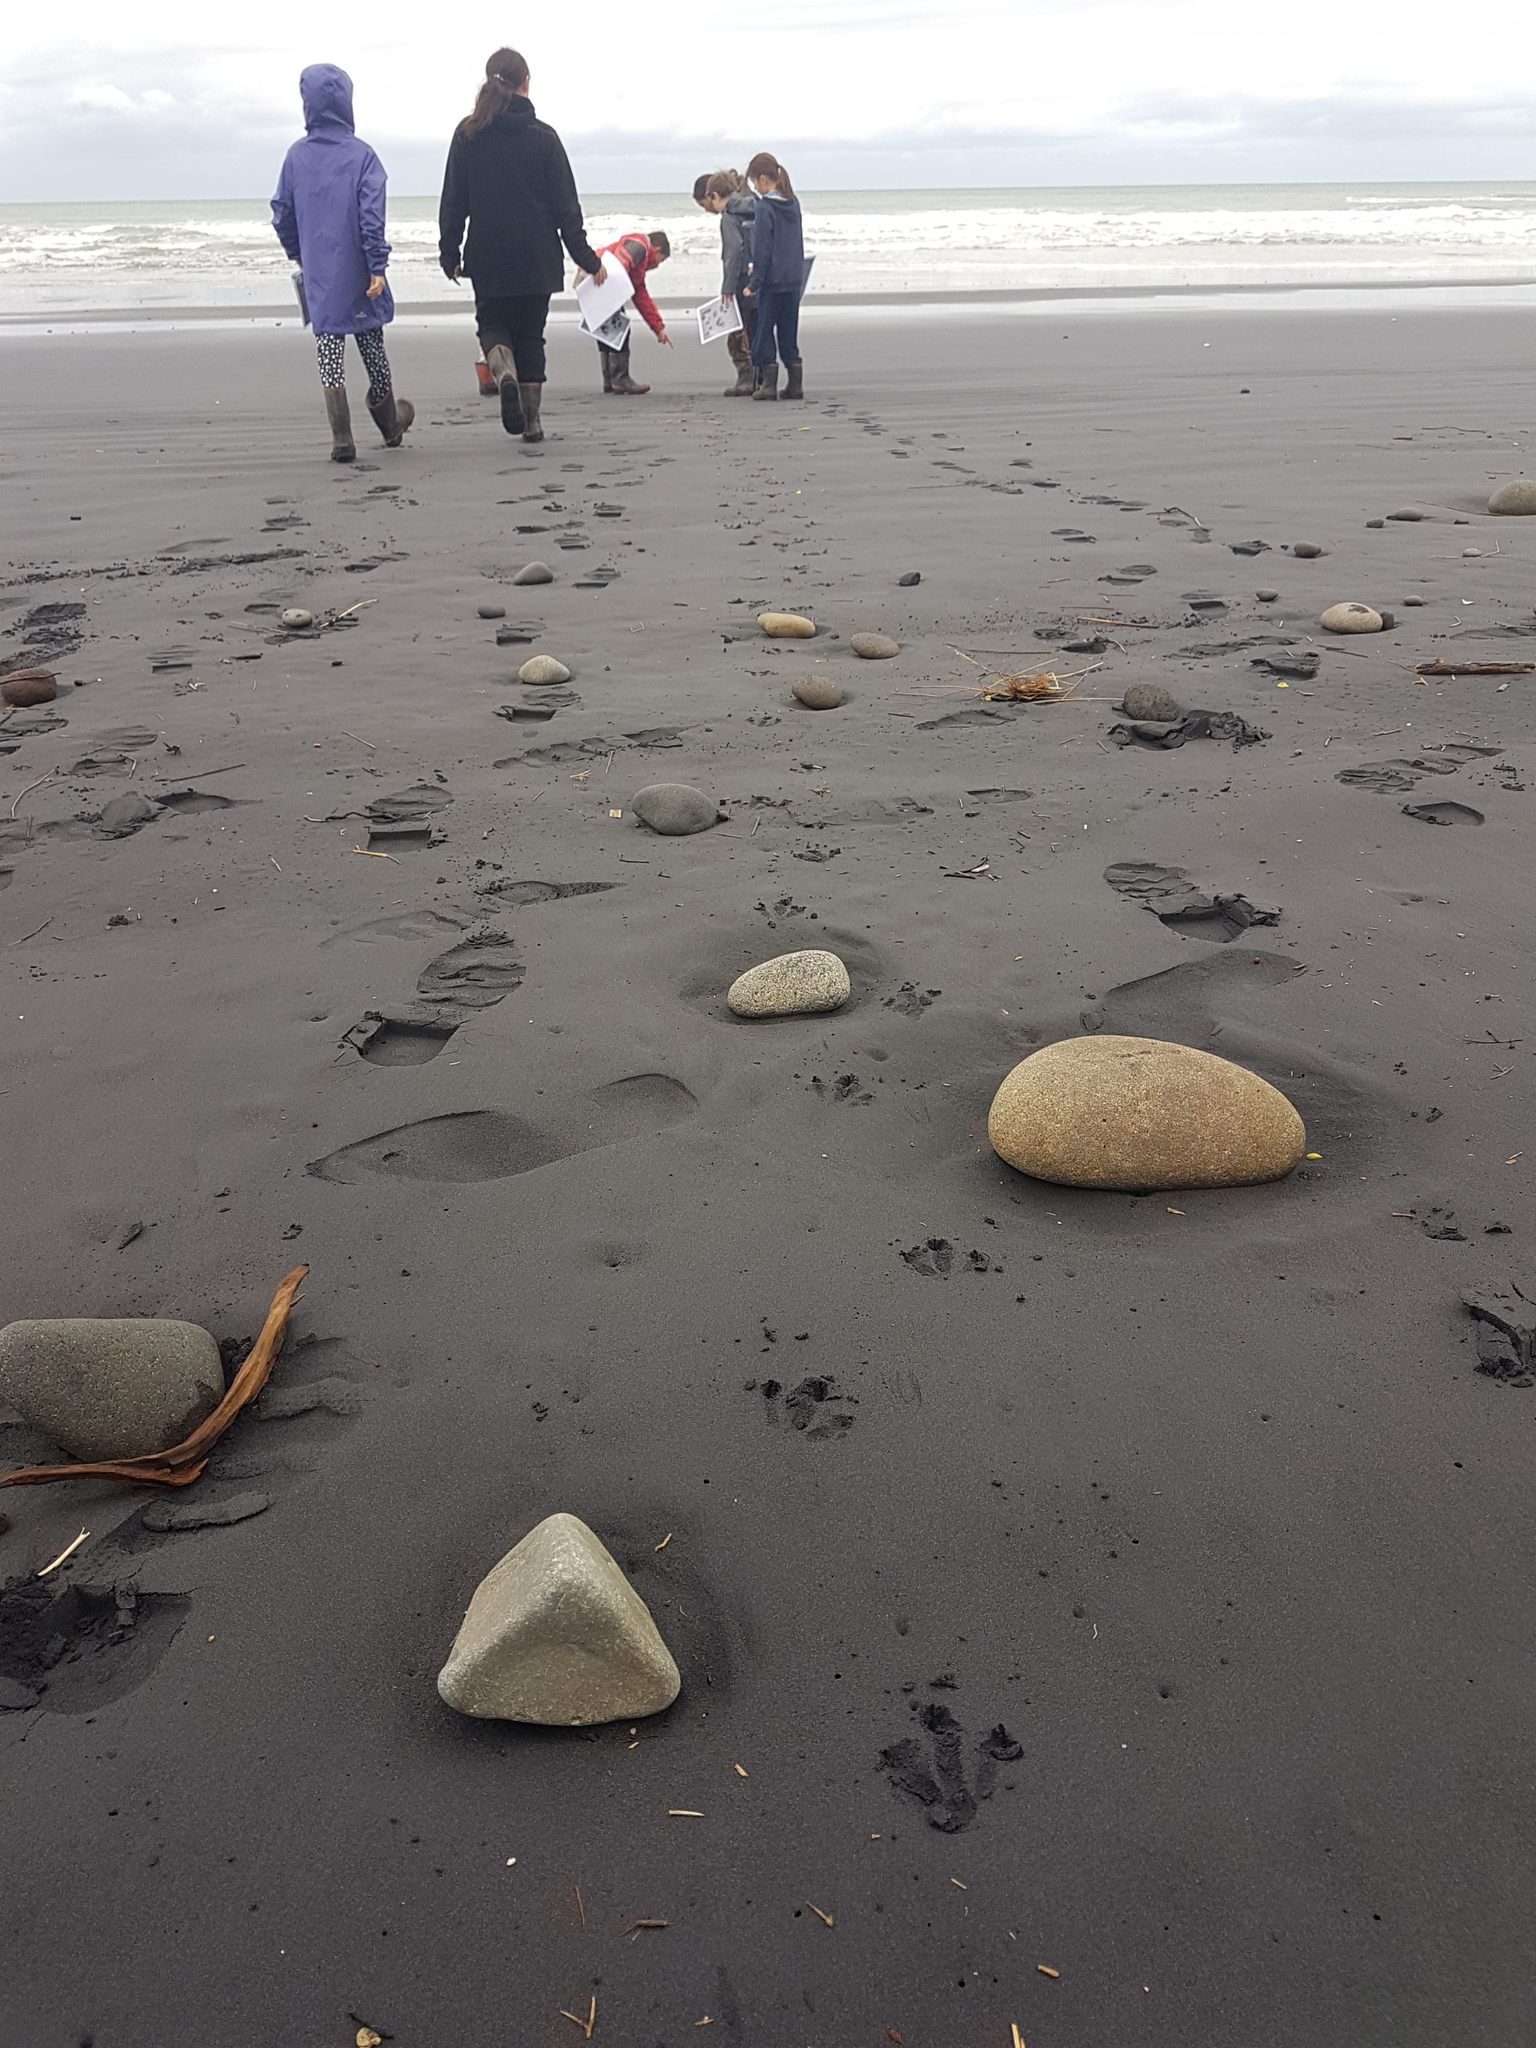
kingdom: Animalia
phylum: Chordata
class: Aves
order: Sphenisciformes
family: Spheniscidae
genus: Eudyptula
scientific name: Eudyptula minor
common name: Little penguin
